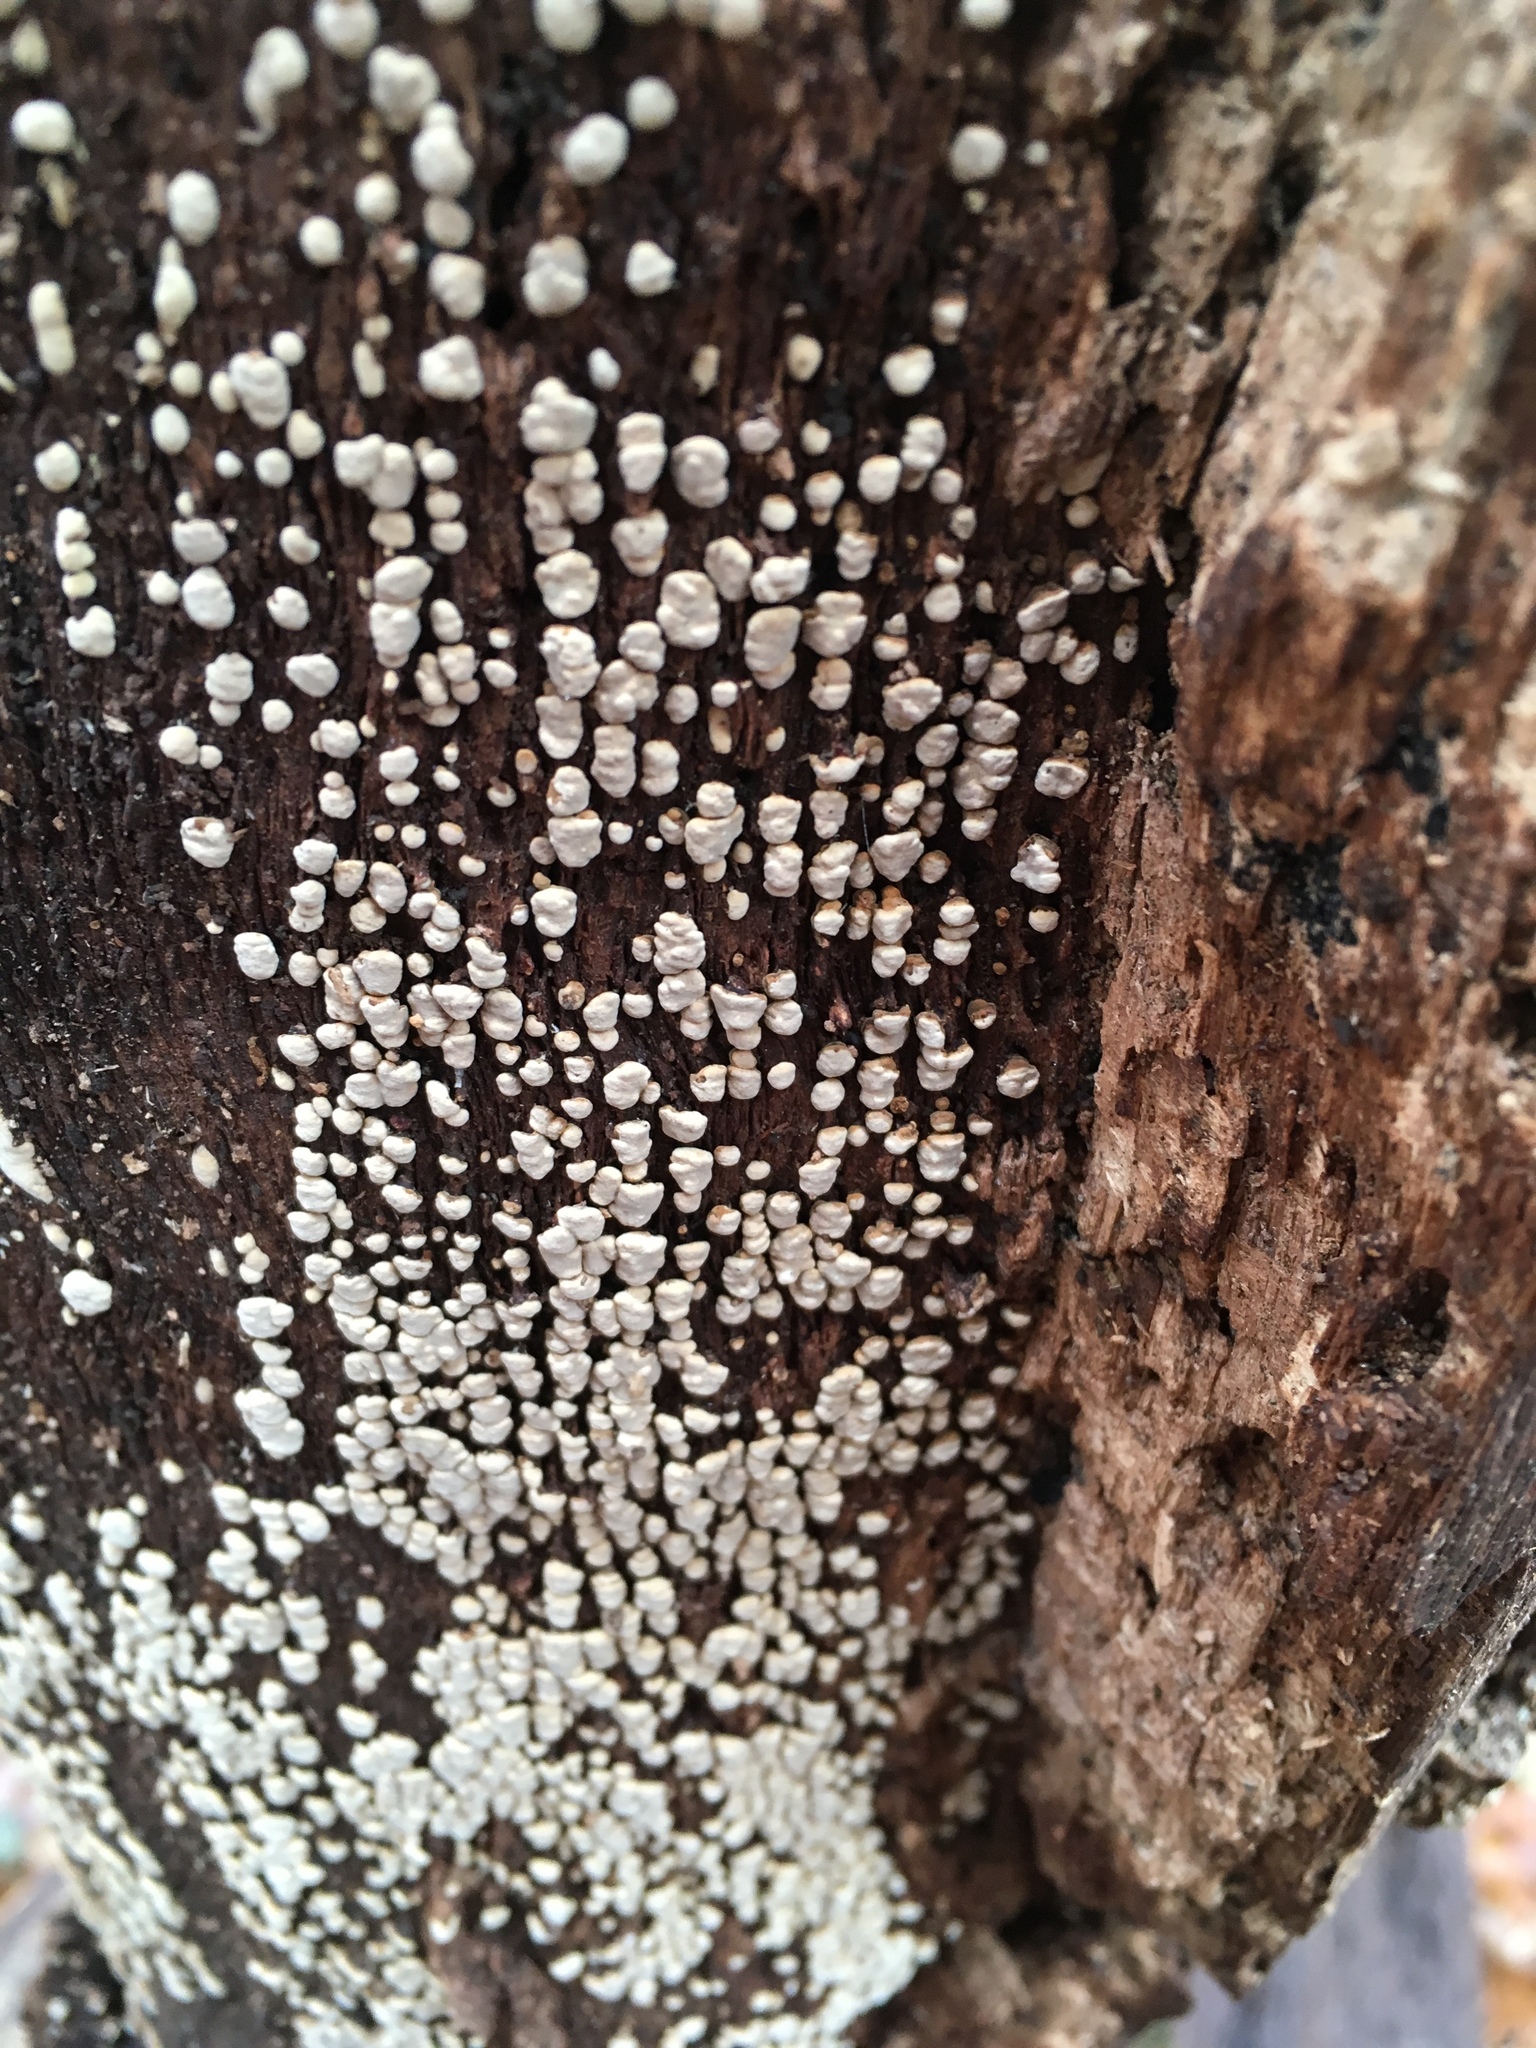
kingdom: Fungi
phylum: Basidiomycota
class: Agaricomycetes
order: Russulales
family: Stereaceae
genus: Xylobolus
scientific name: Xylobolus frustulatus
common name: Ceramic parchment
